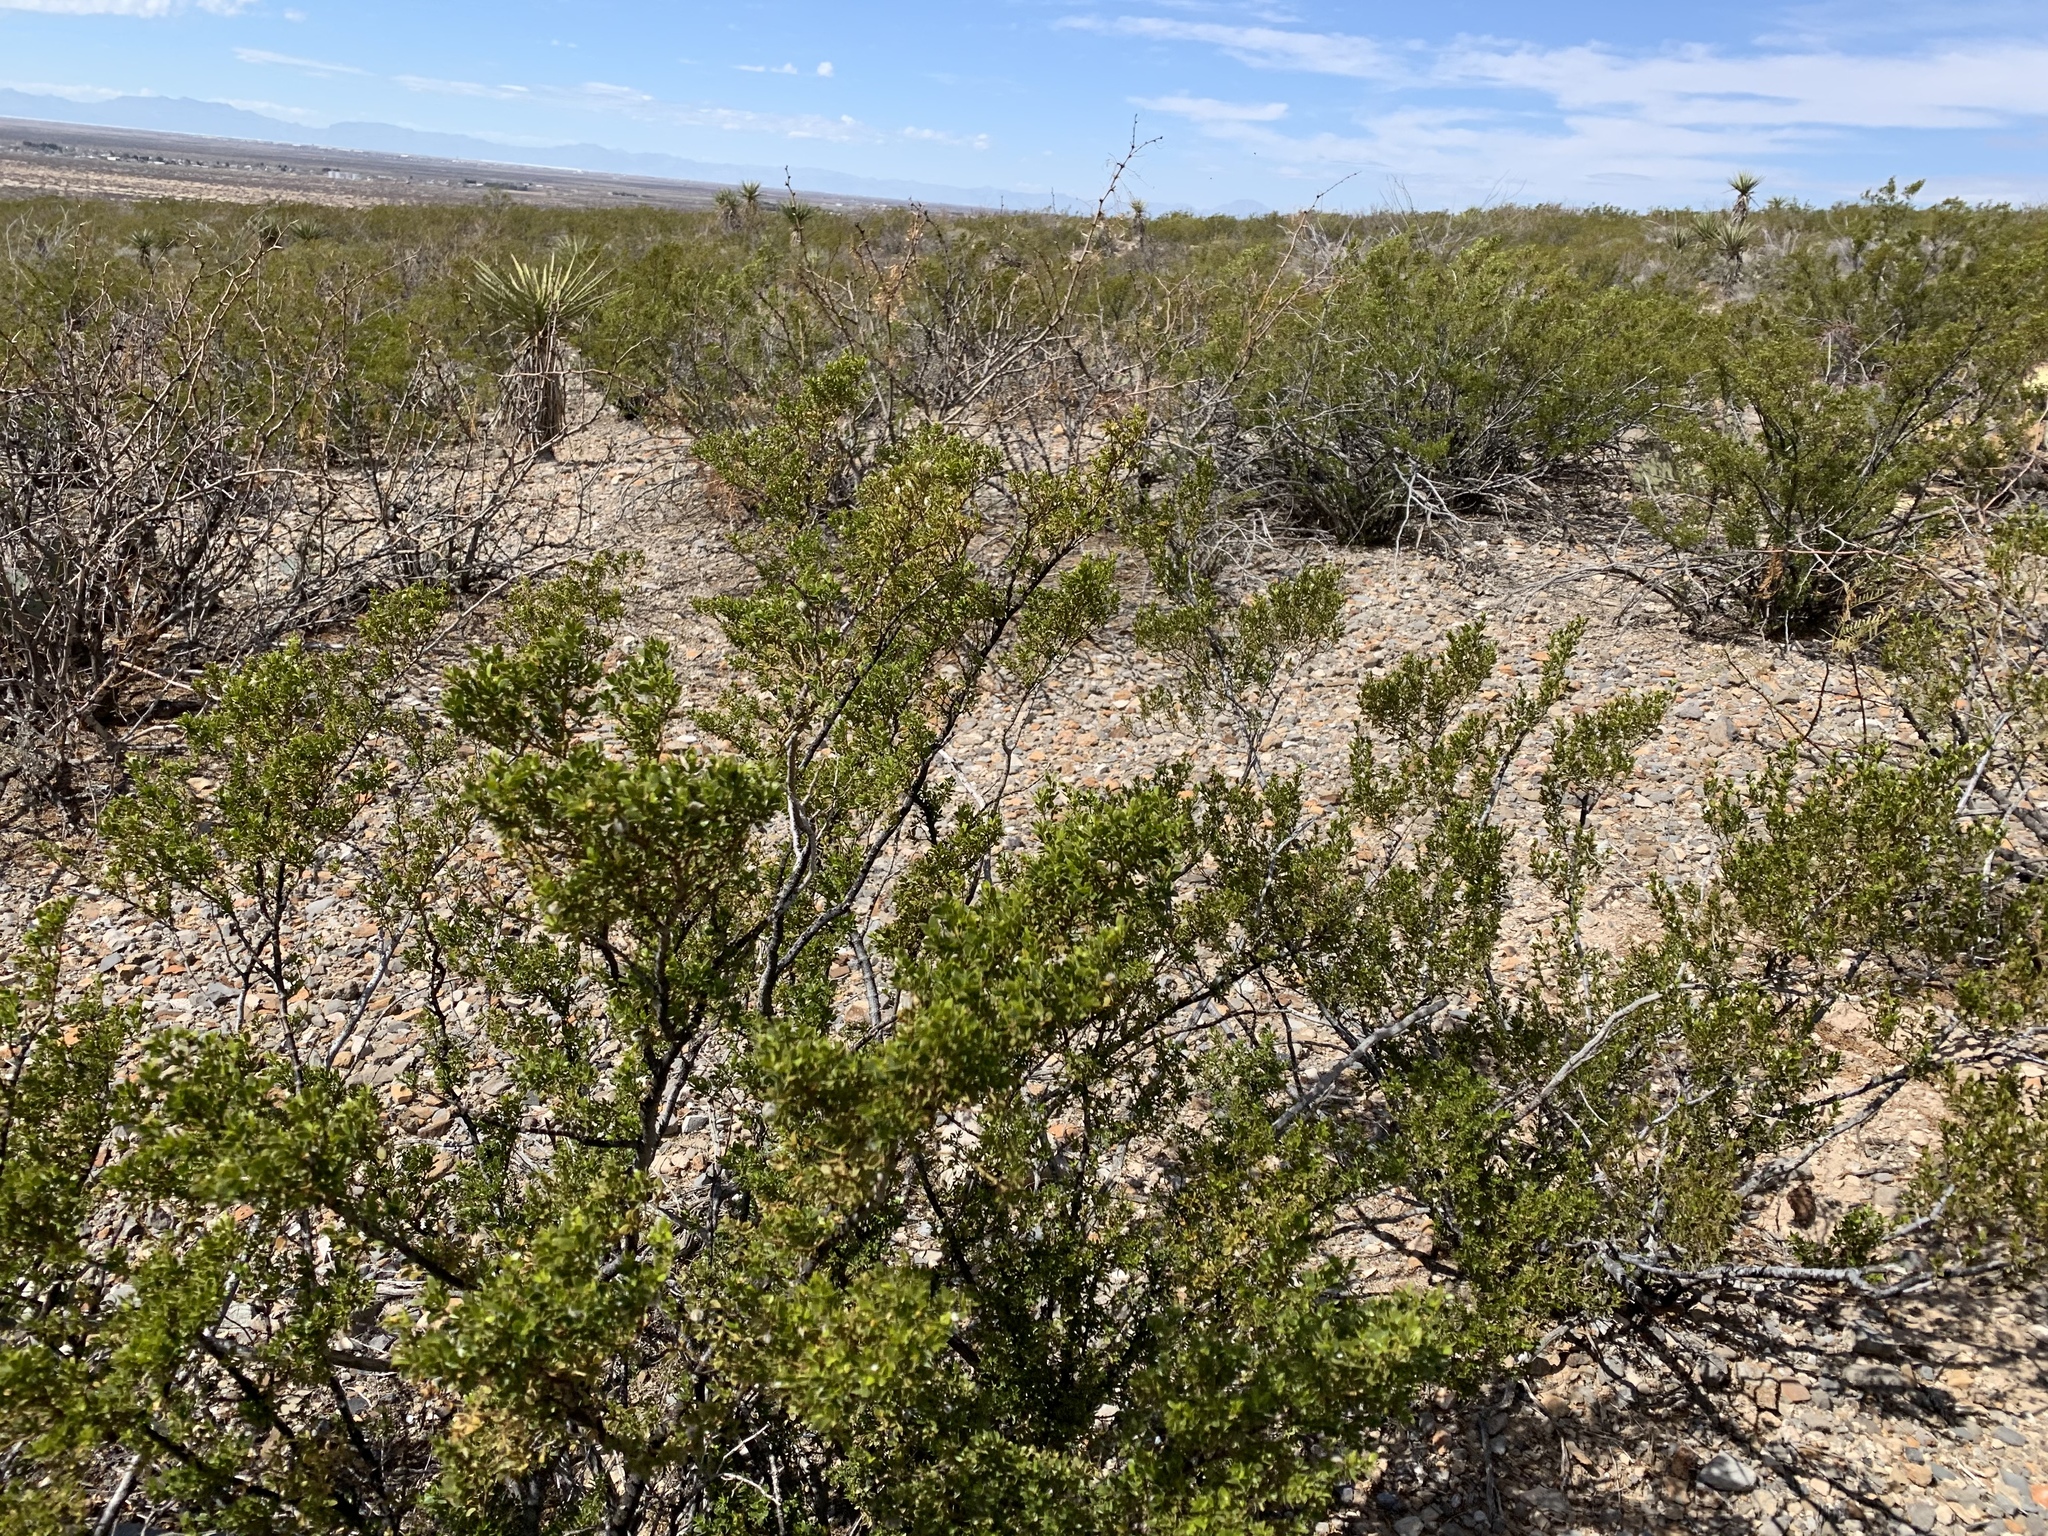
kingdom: Plantae
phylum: Tracheophyta
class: Magnoliopsida
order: Zygophyllales
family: Zygophyllaceae
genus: Larrea
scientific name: Larrea tridentata
